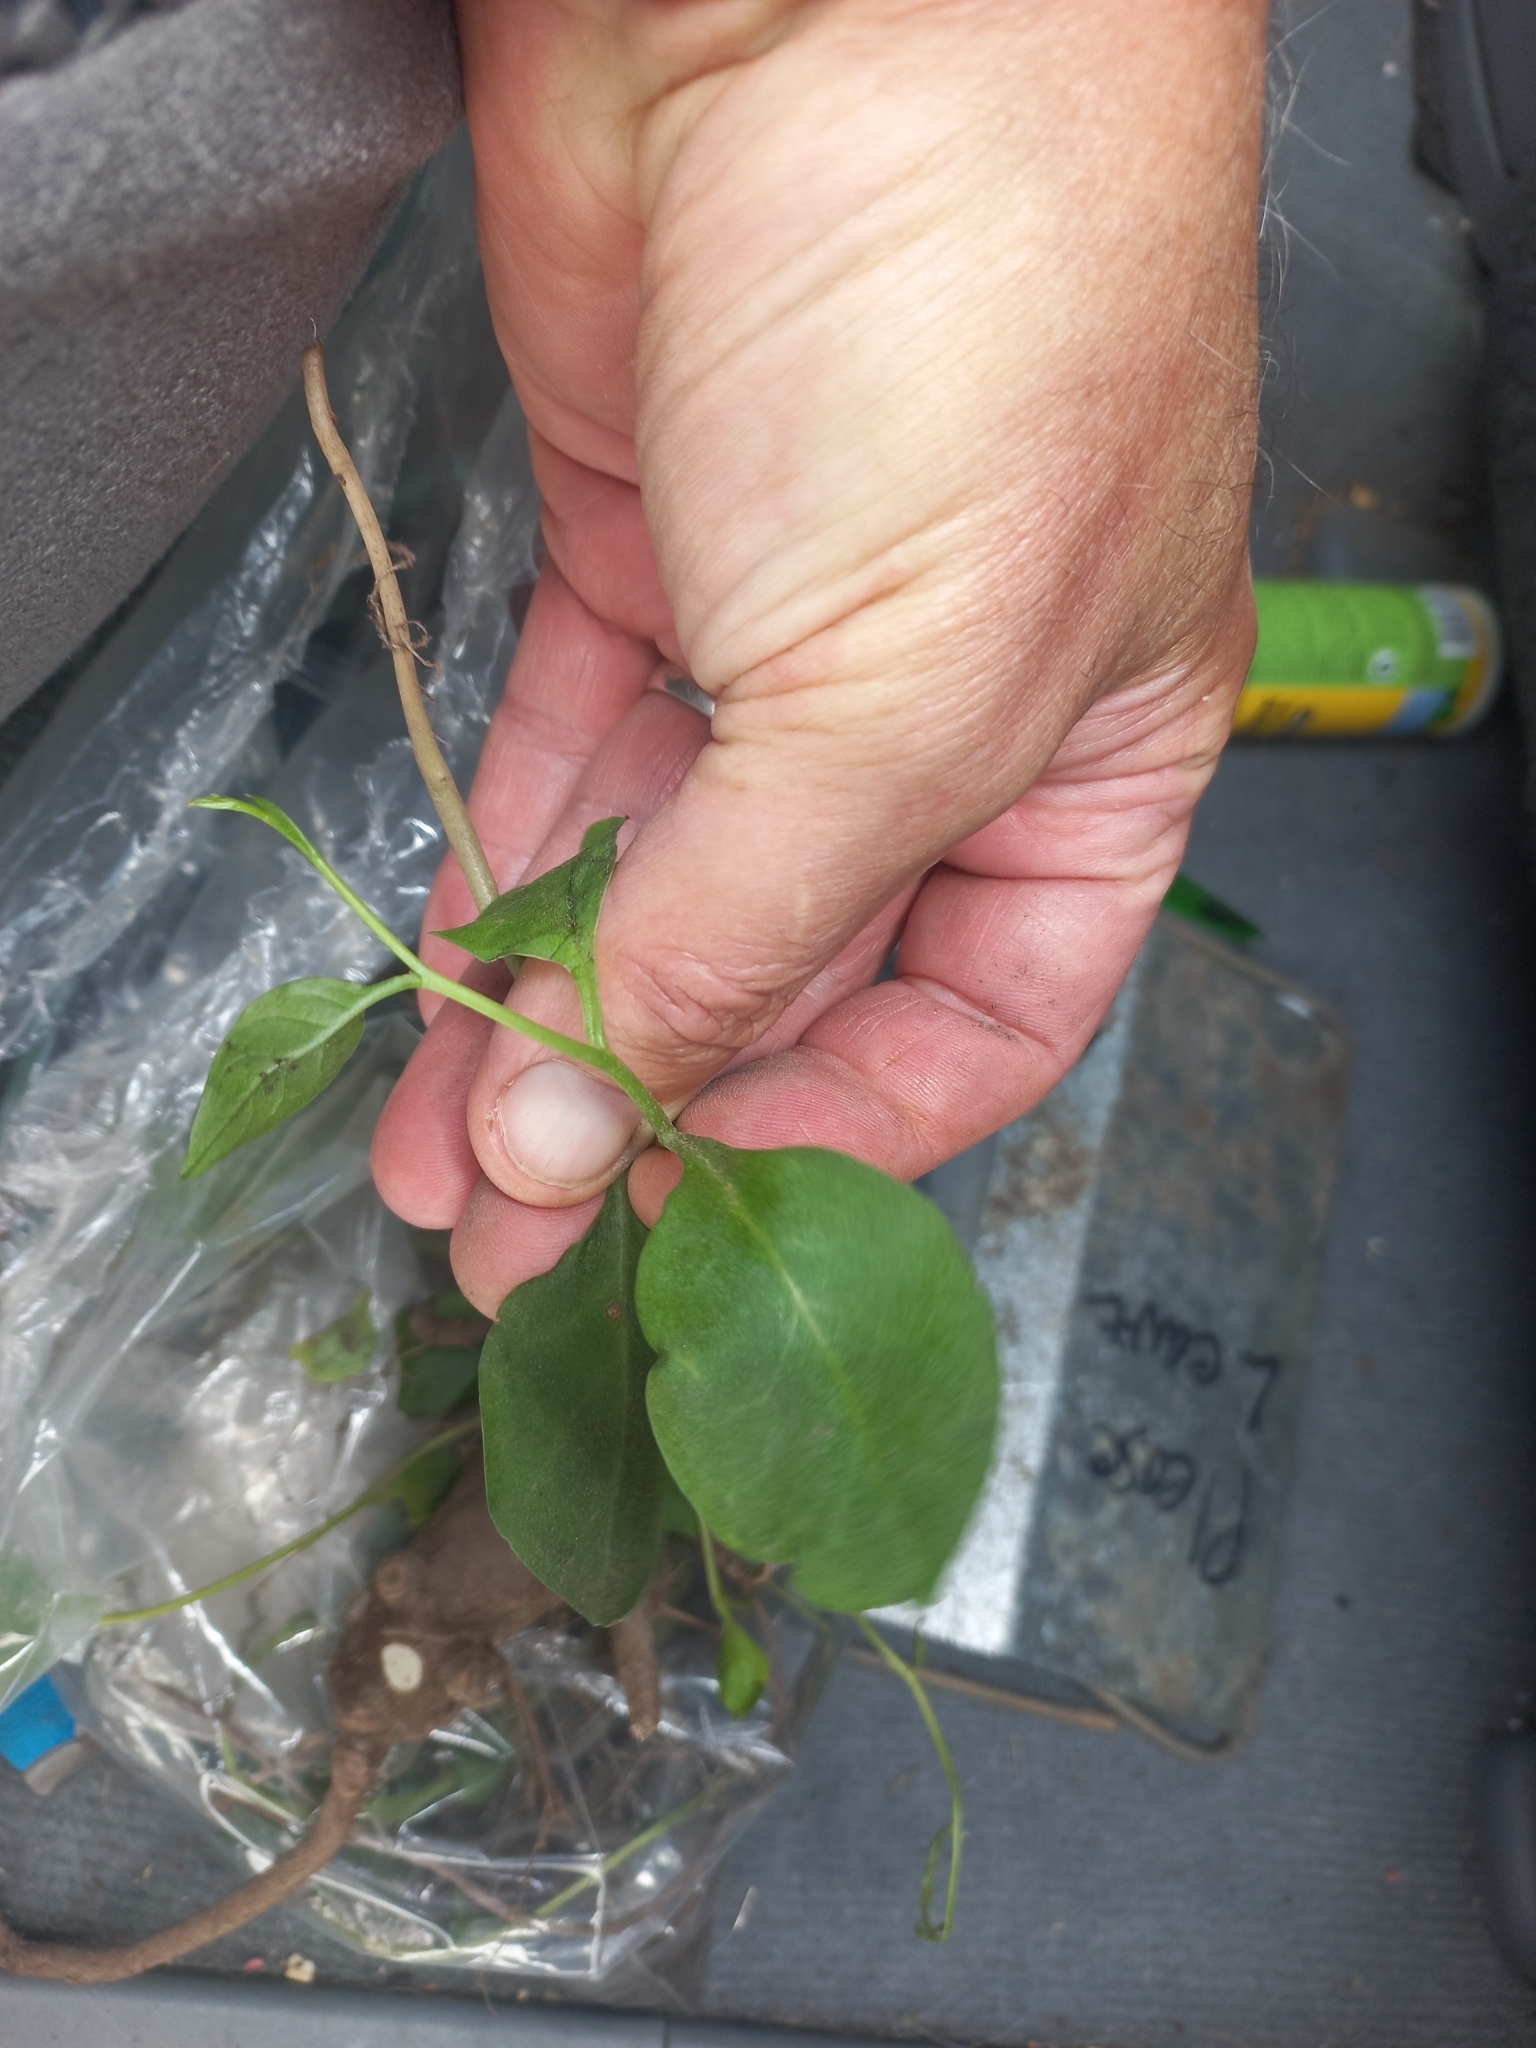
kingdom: Plantae
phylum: Tracheophyta
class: Magnoliopsida
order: Caryophyllales
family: Basellaceae
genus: Anredera
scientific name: Anredera cordifolia
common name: Heartleaf madeiravine
